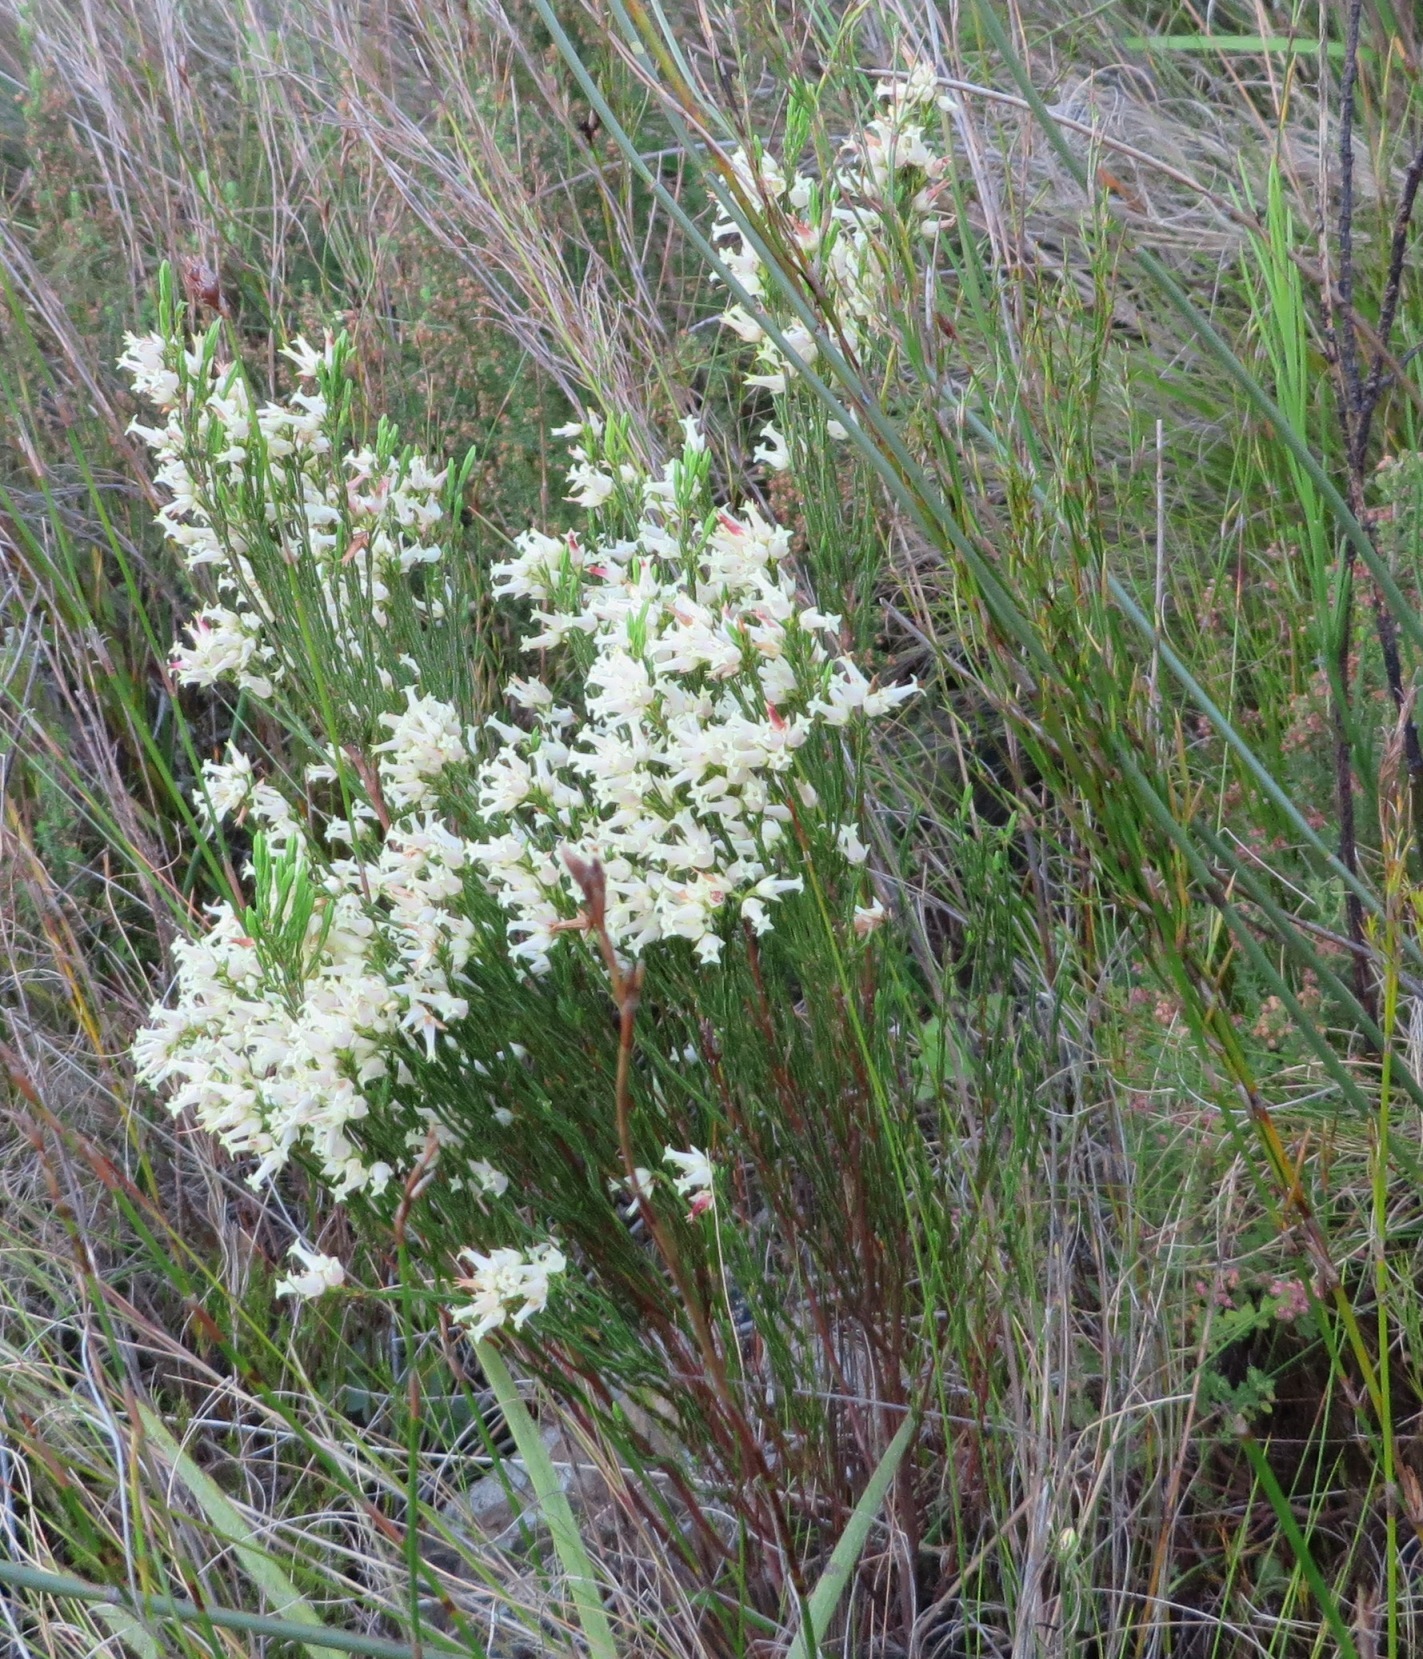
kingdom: Plantae
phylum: Tracheophyta
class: Magnoliopsida
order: Ericales
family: Ericaceae
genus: Erica
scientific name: Erica lutea
